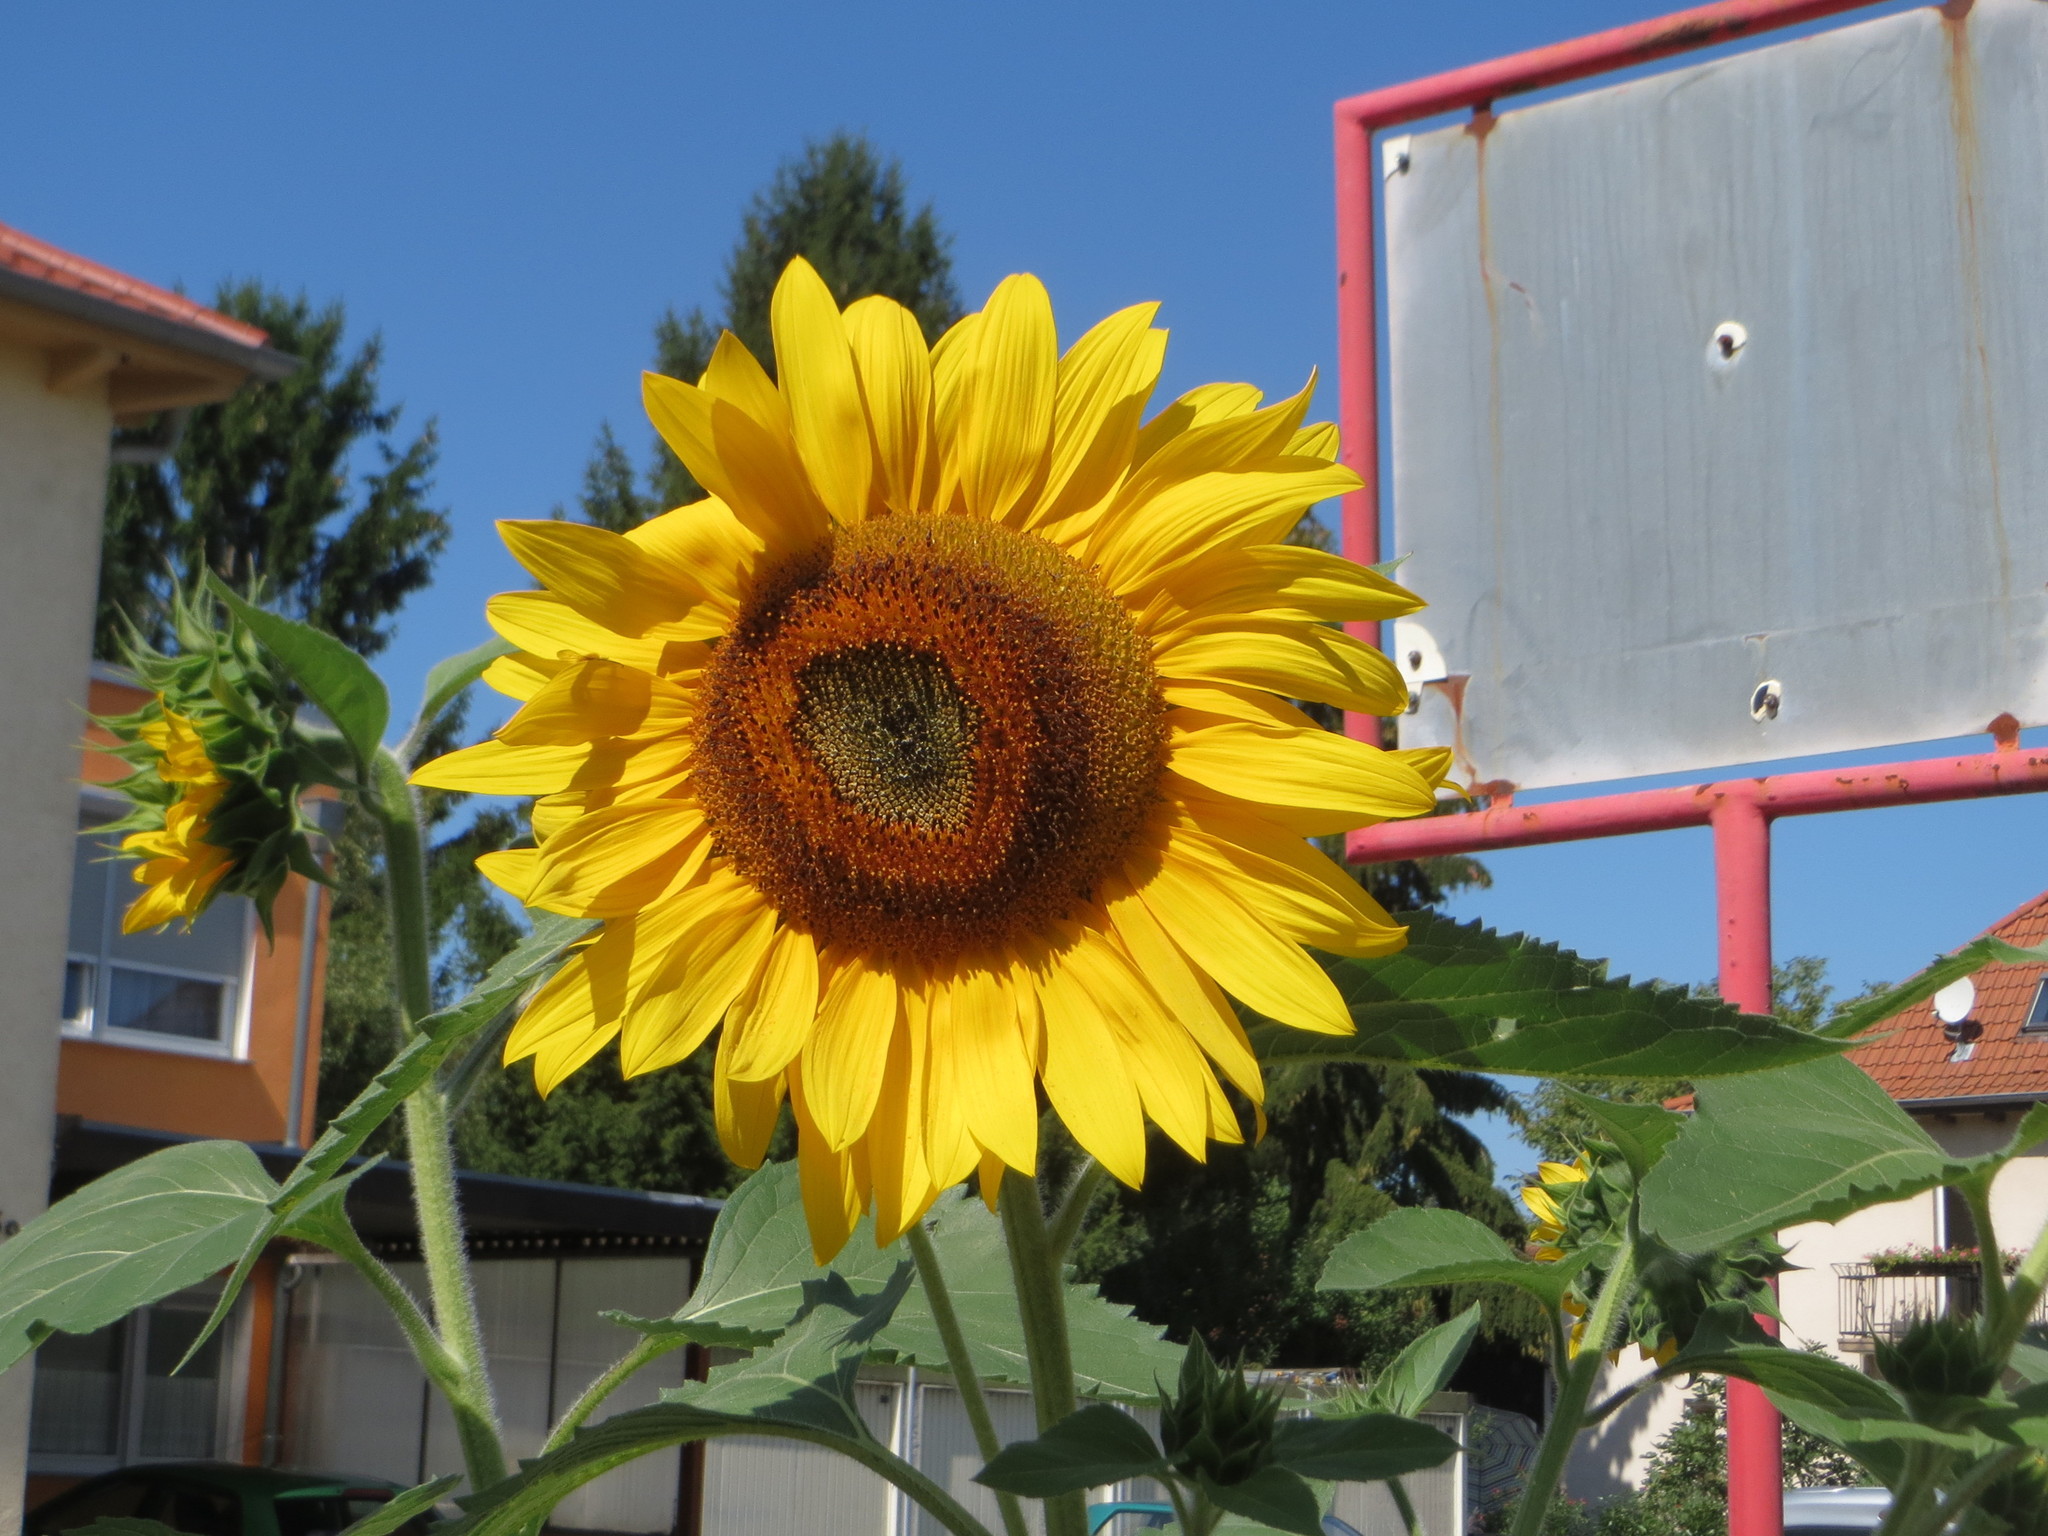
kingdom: Plantae
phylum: Tracheophyta
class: Magnoliopsida
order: Asterales
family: Asteraceae
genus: Helianthus
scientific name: Helianthus annuus
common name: Sunflower
